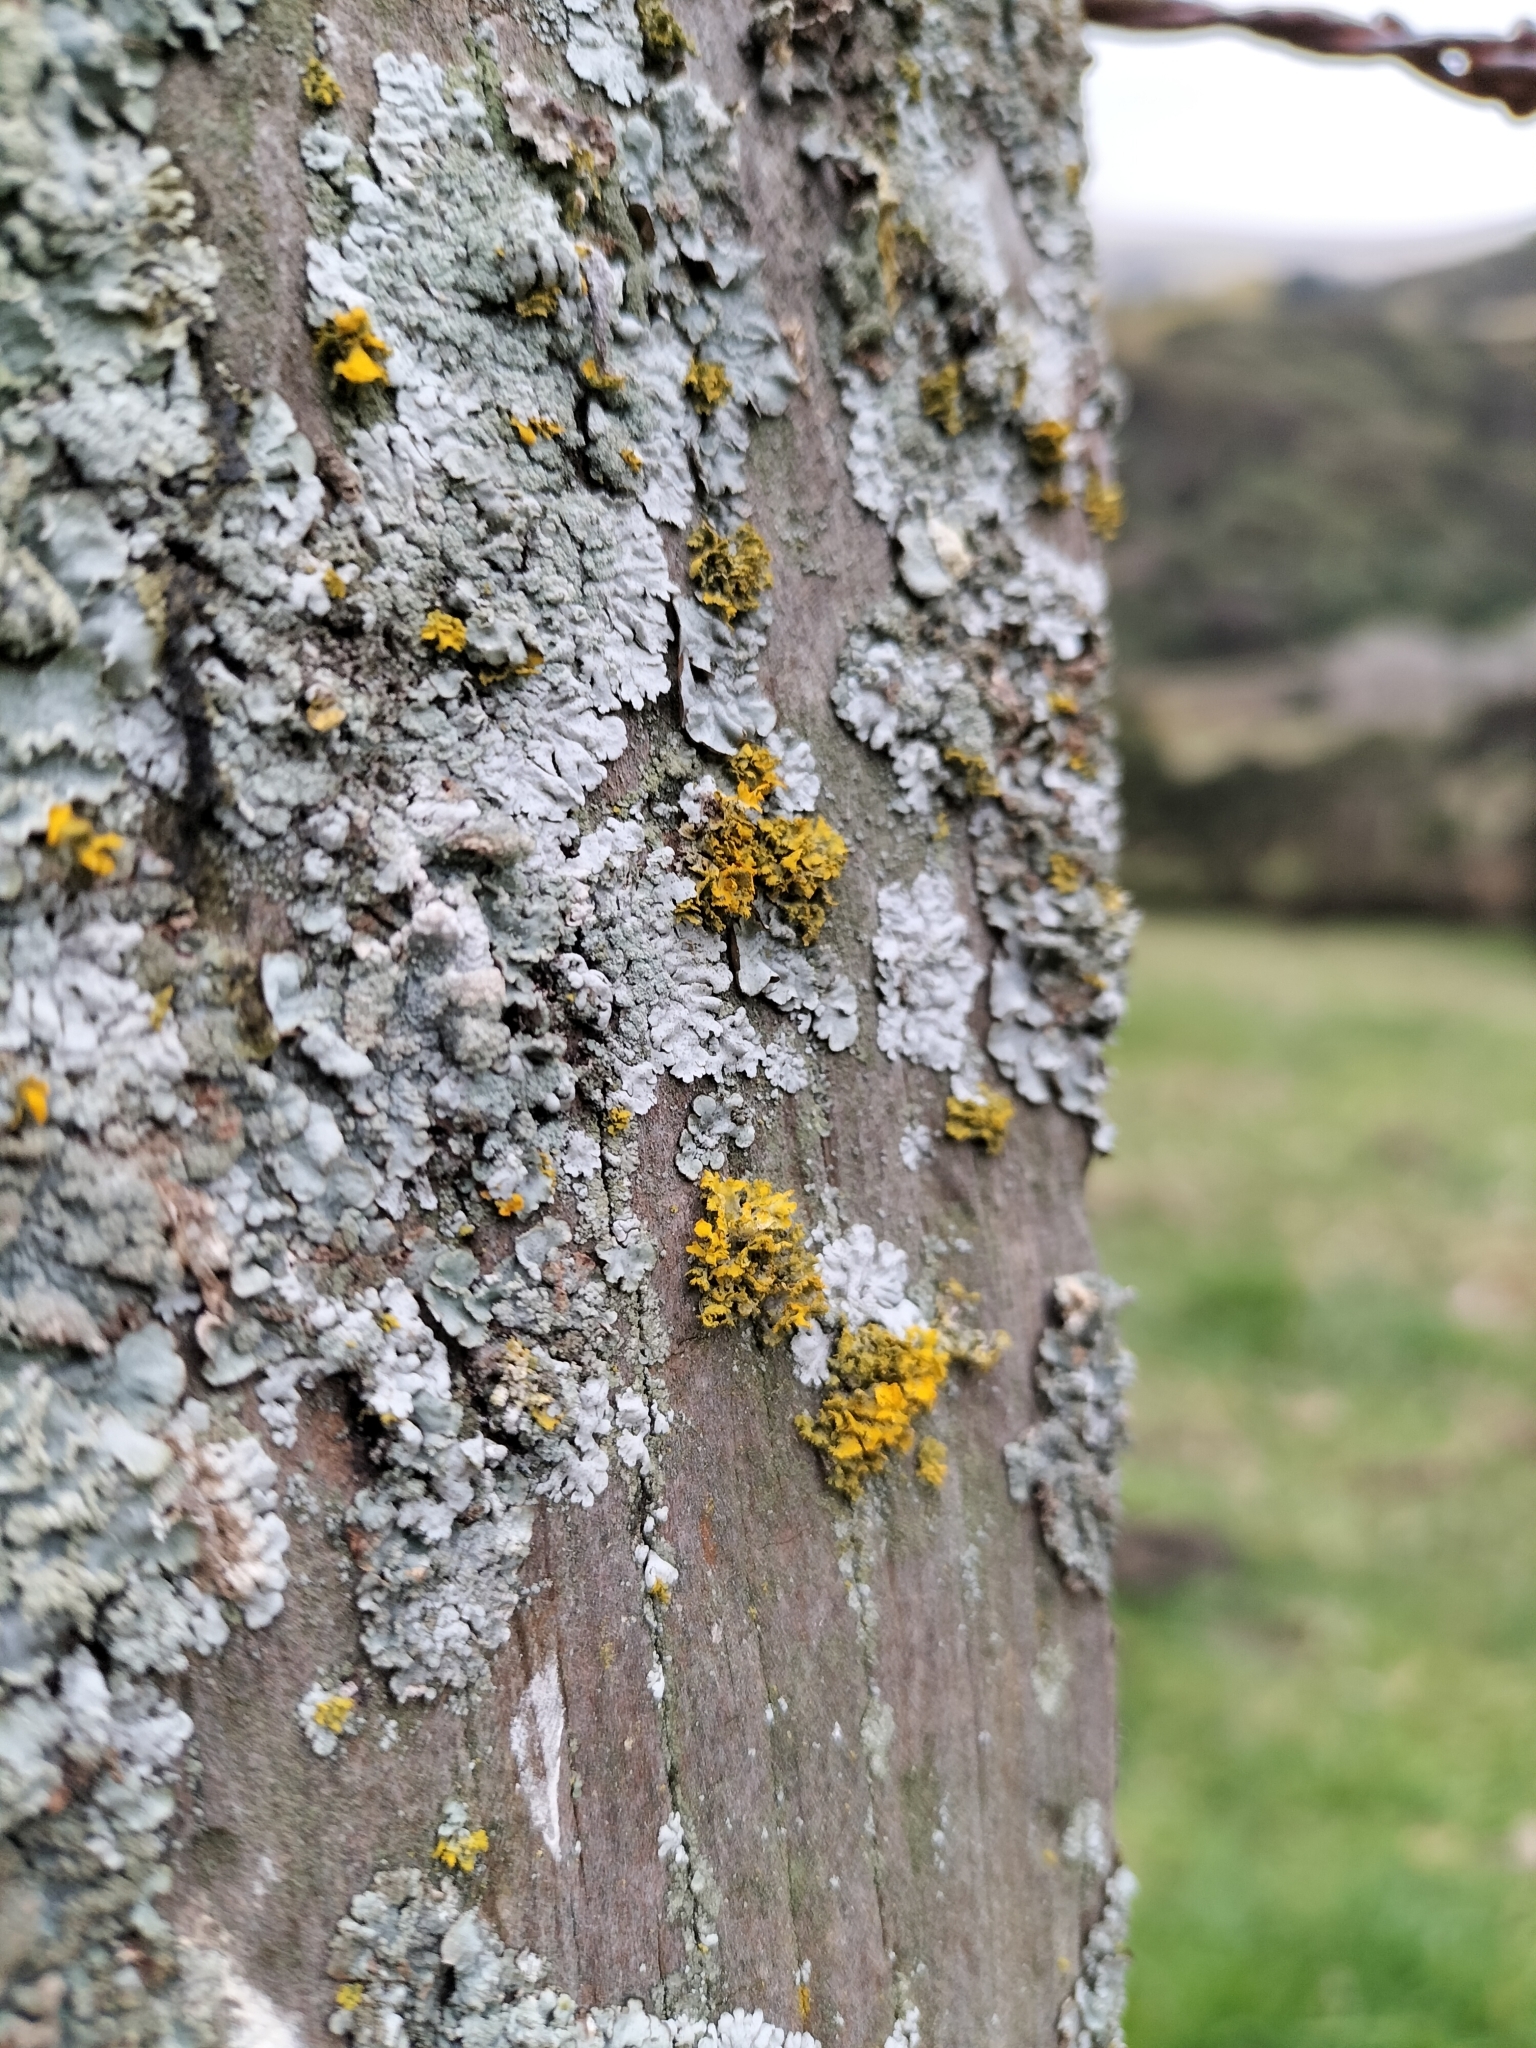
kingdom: Fungi
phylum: Ascomycota
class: Lecanoromycetes
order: Teloschistales
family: Teloschistaceae
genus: Teloschistes
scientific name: Teloschistes velifer
